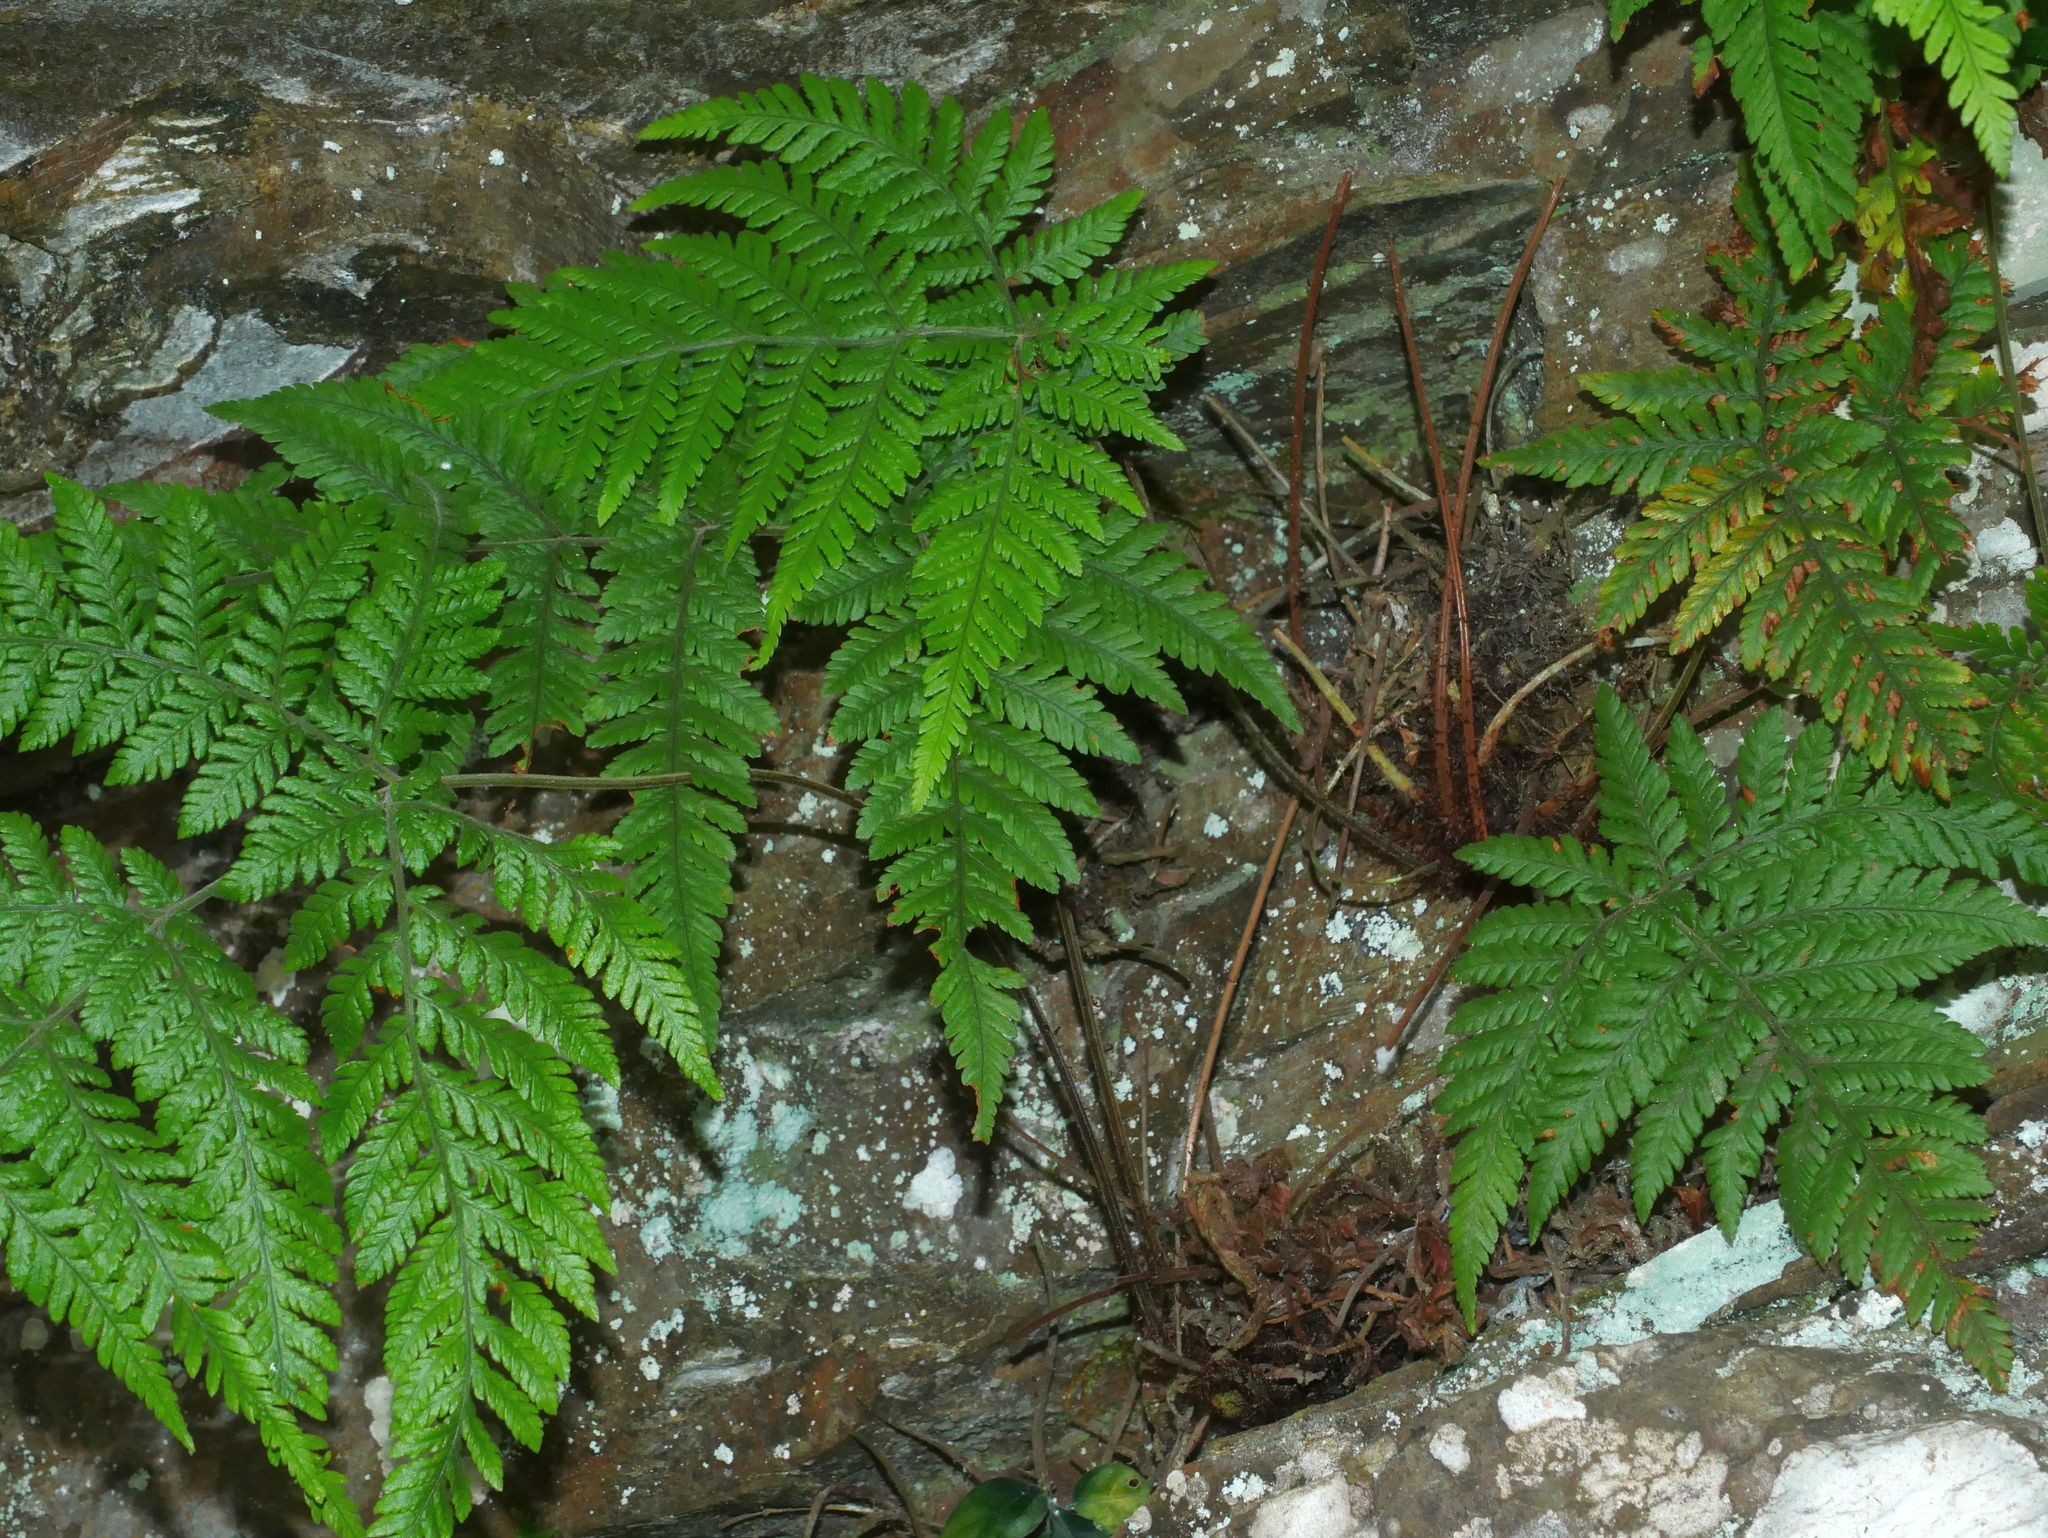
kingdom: Plantae
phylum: Tracheophyta
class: Polypodiopsida
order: Polypodiales
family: Dryopteridaceae
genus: Lastreopsis
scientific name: Lastreopsis tenera
